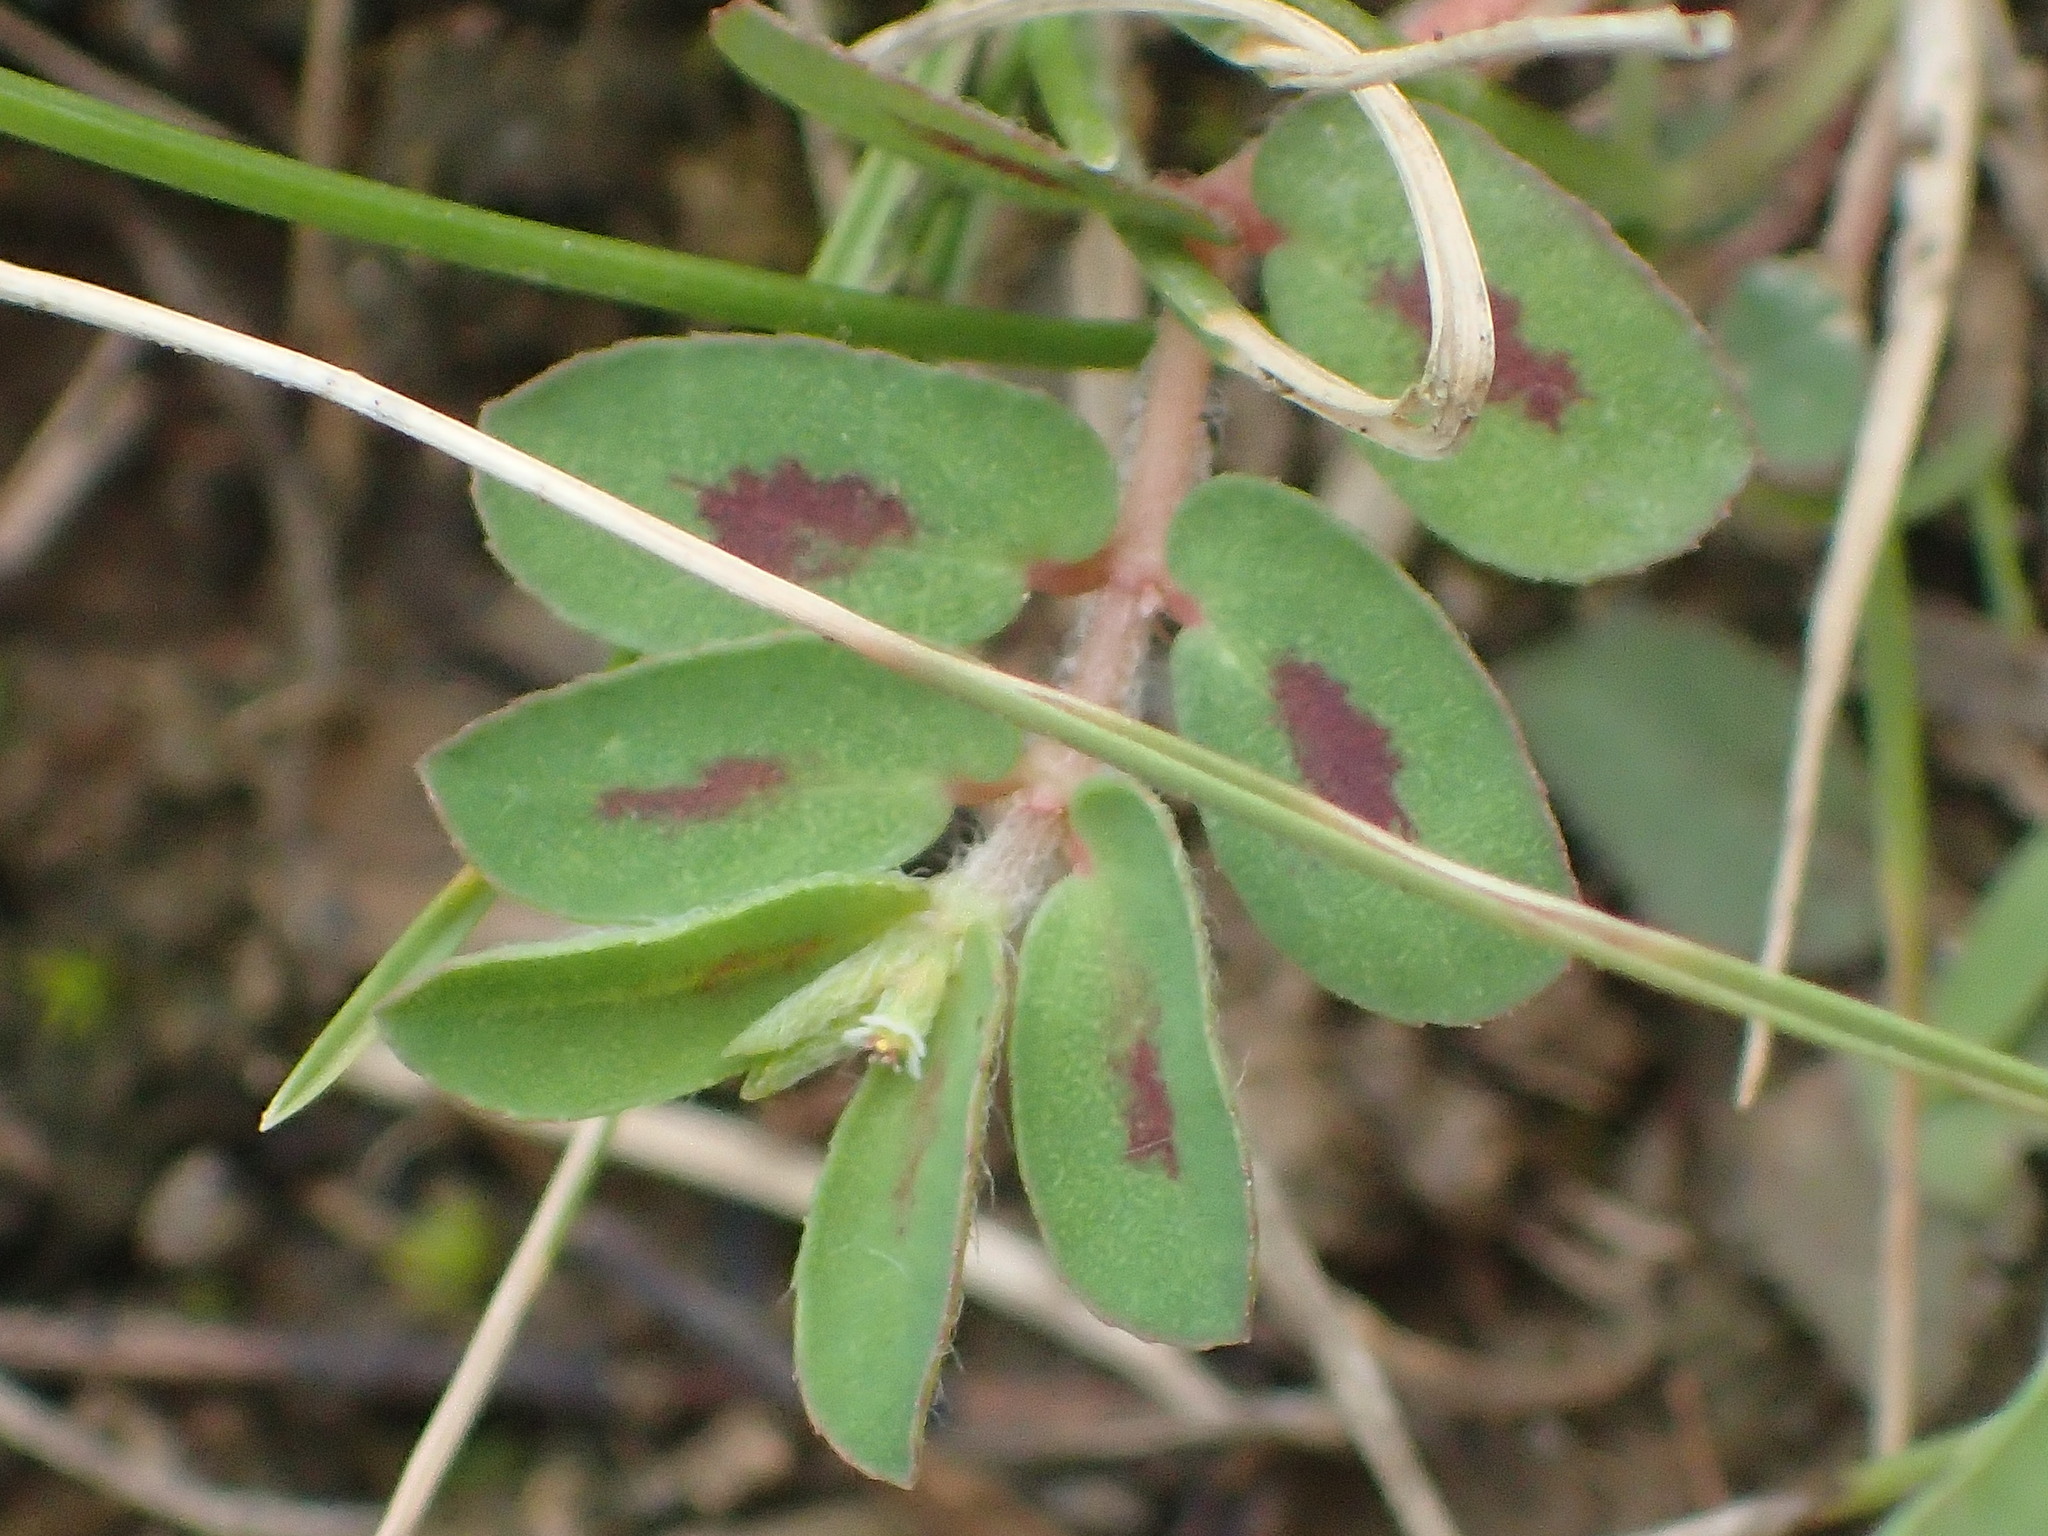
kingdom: Plantae
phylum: Tracheophyta
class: Magnoliopsida
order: Malpighiales
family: Euphorbiaceae
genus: Euphorbia
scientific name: Euphorbia maculata
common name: Spotted spurge
